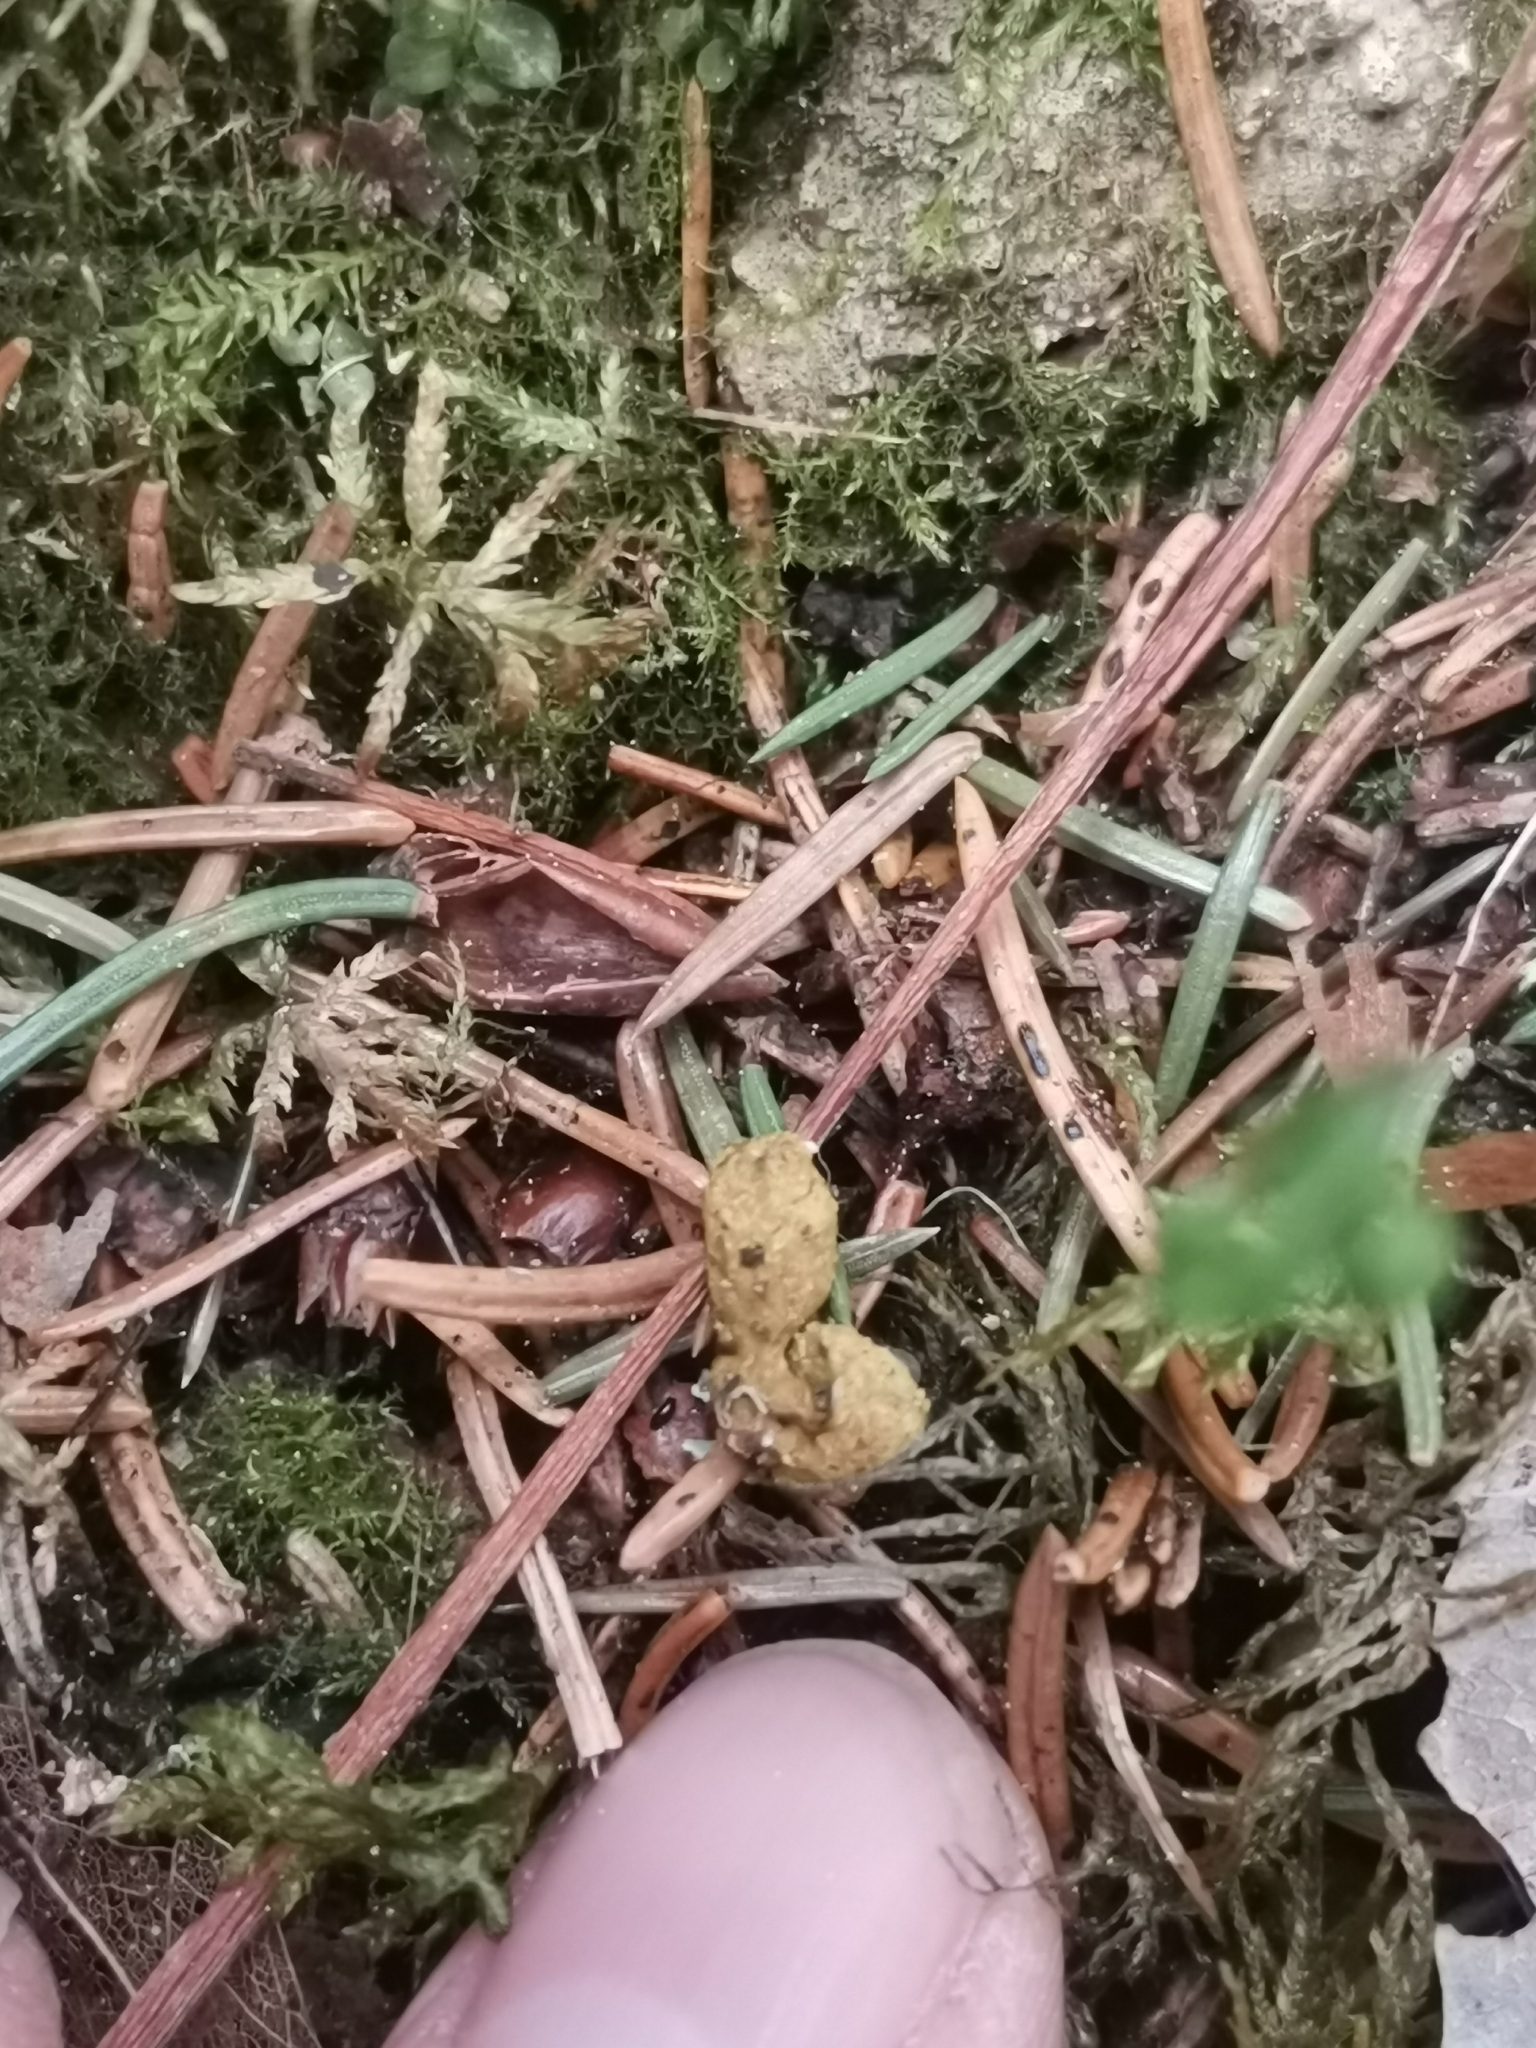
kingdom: Animalia
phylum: Chordata
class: Mammalia
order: Rodentia
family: Sciuridae
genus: Pteromys
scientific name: Pteromys volans
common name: Siberian flying squirrel
